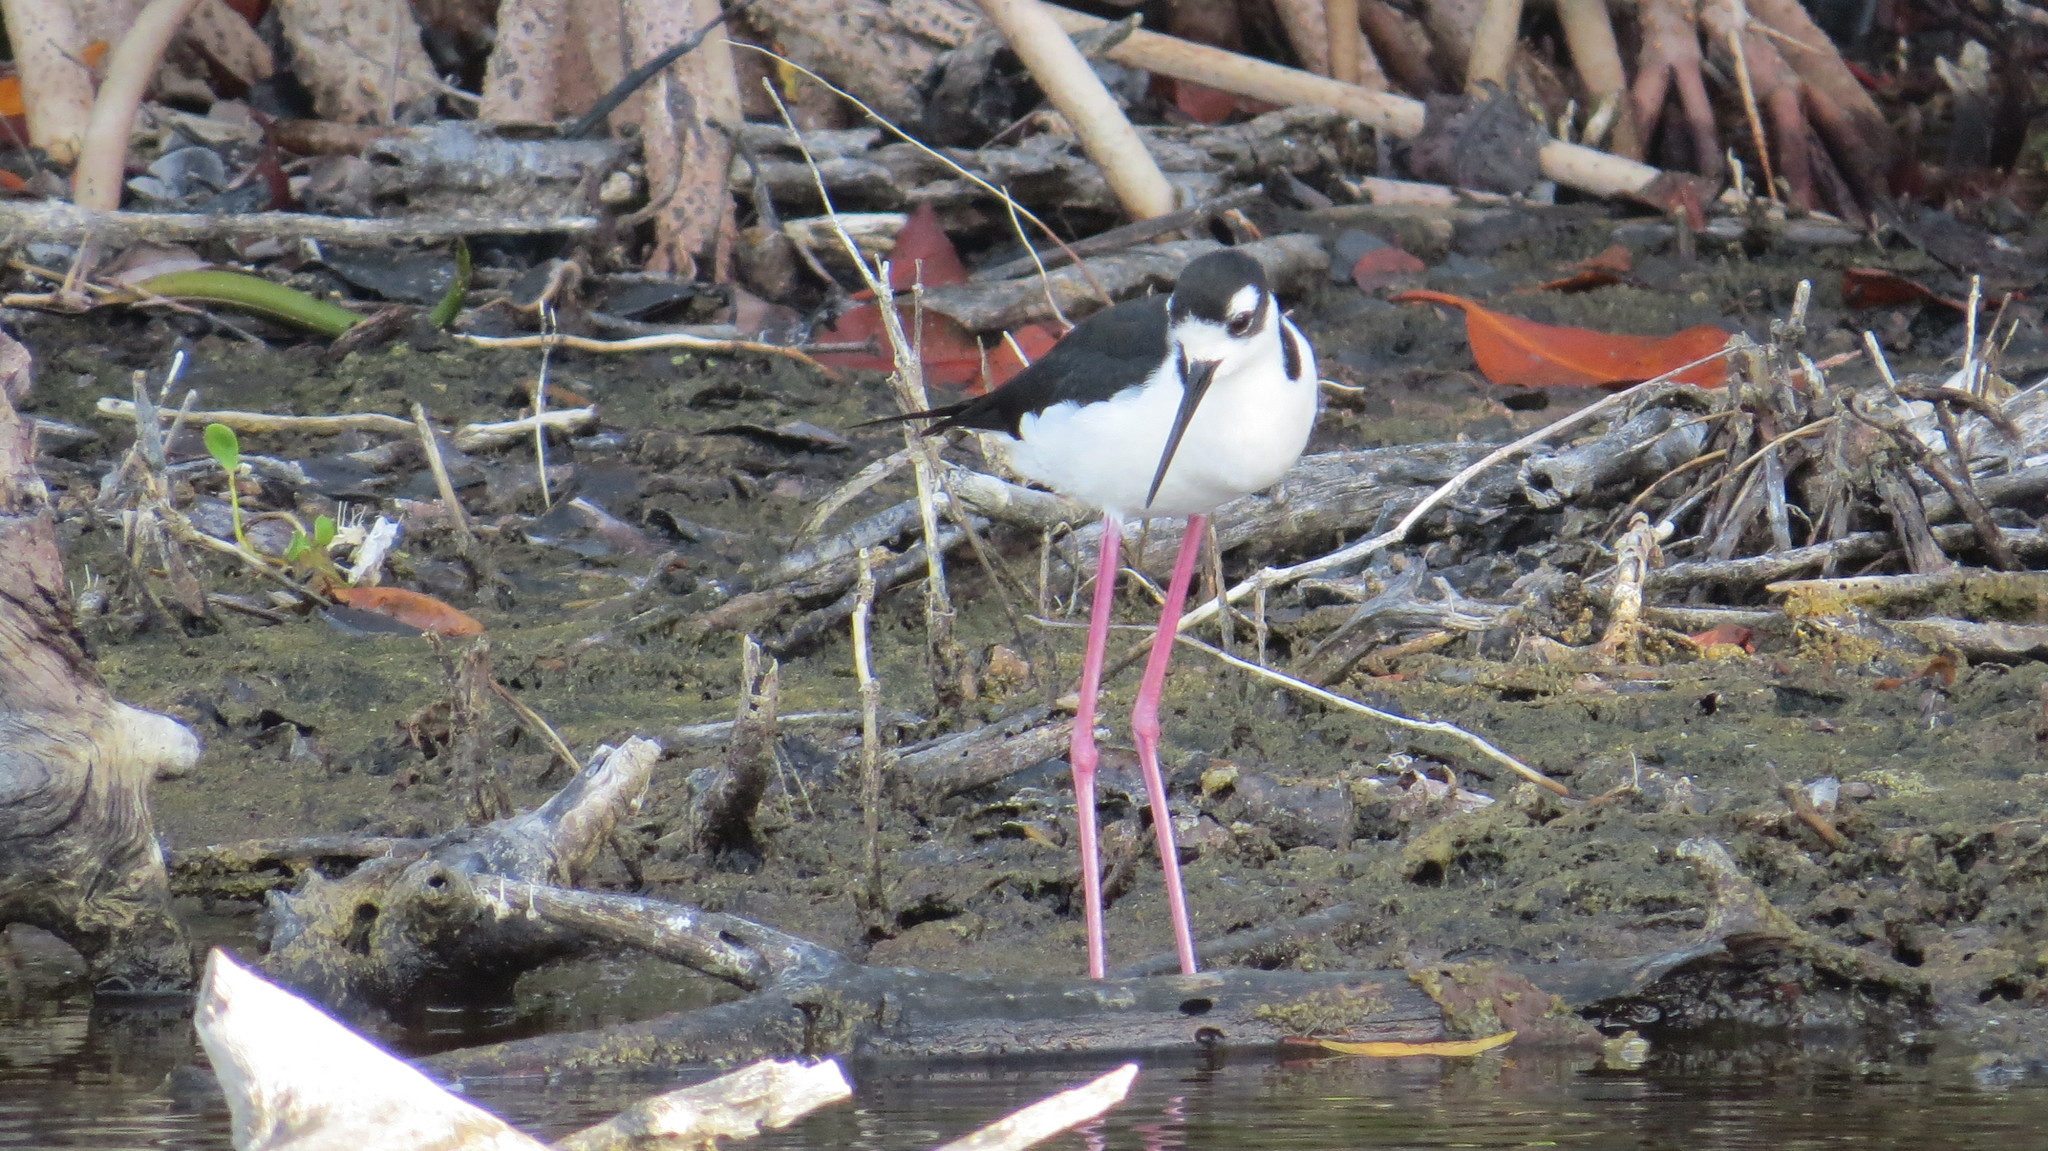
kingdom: Animalia
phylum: Chordata
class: Aves
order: Charadriiformes
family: Recurvirostridae
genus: Himantopus
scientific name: Himantopus mexicanus
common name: Black-necked stilt
